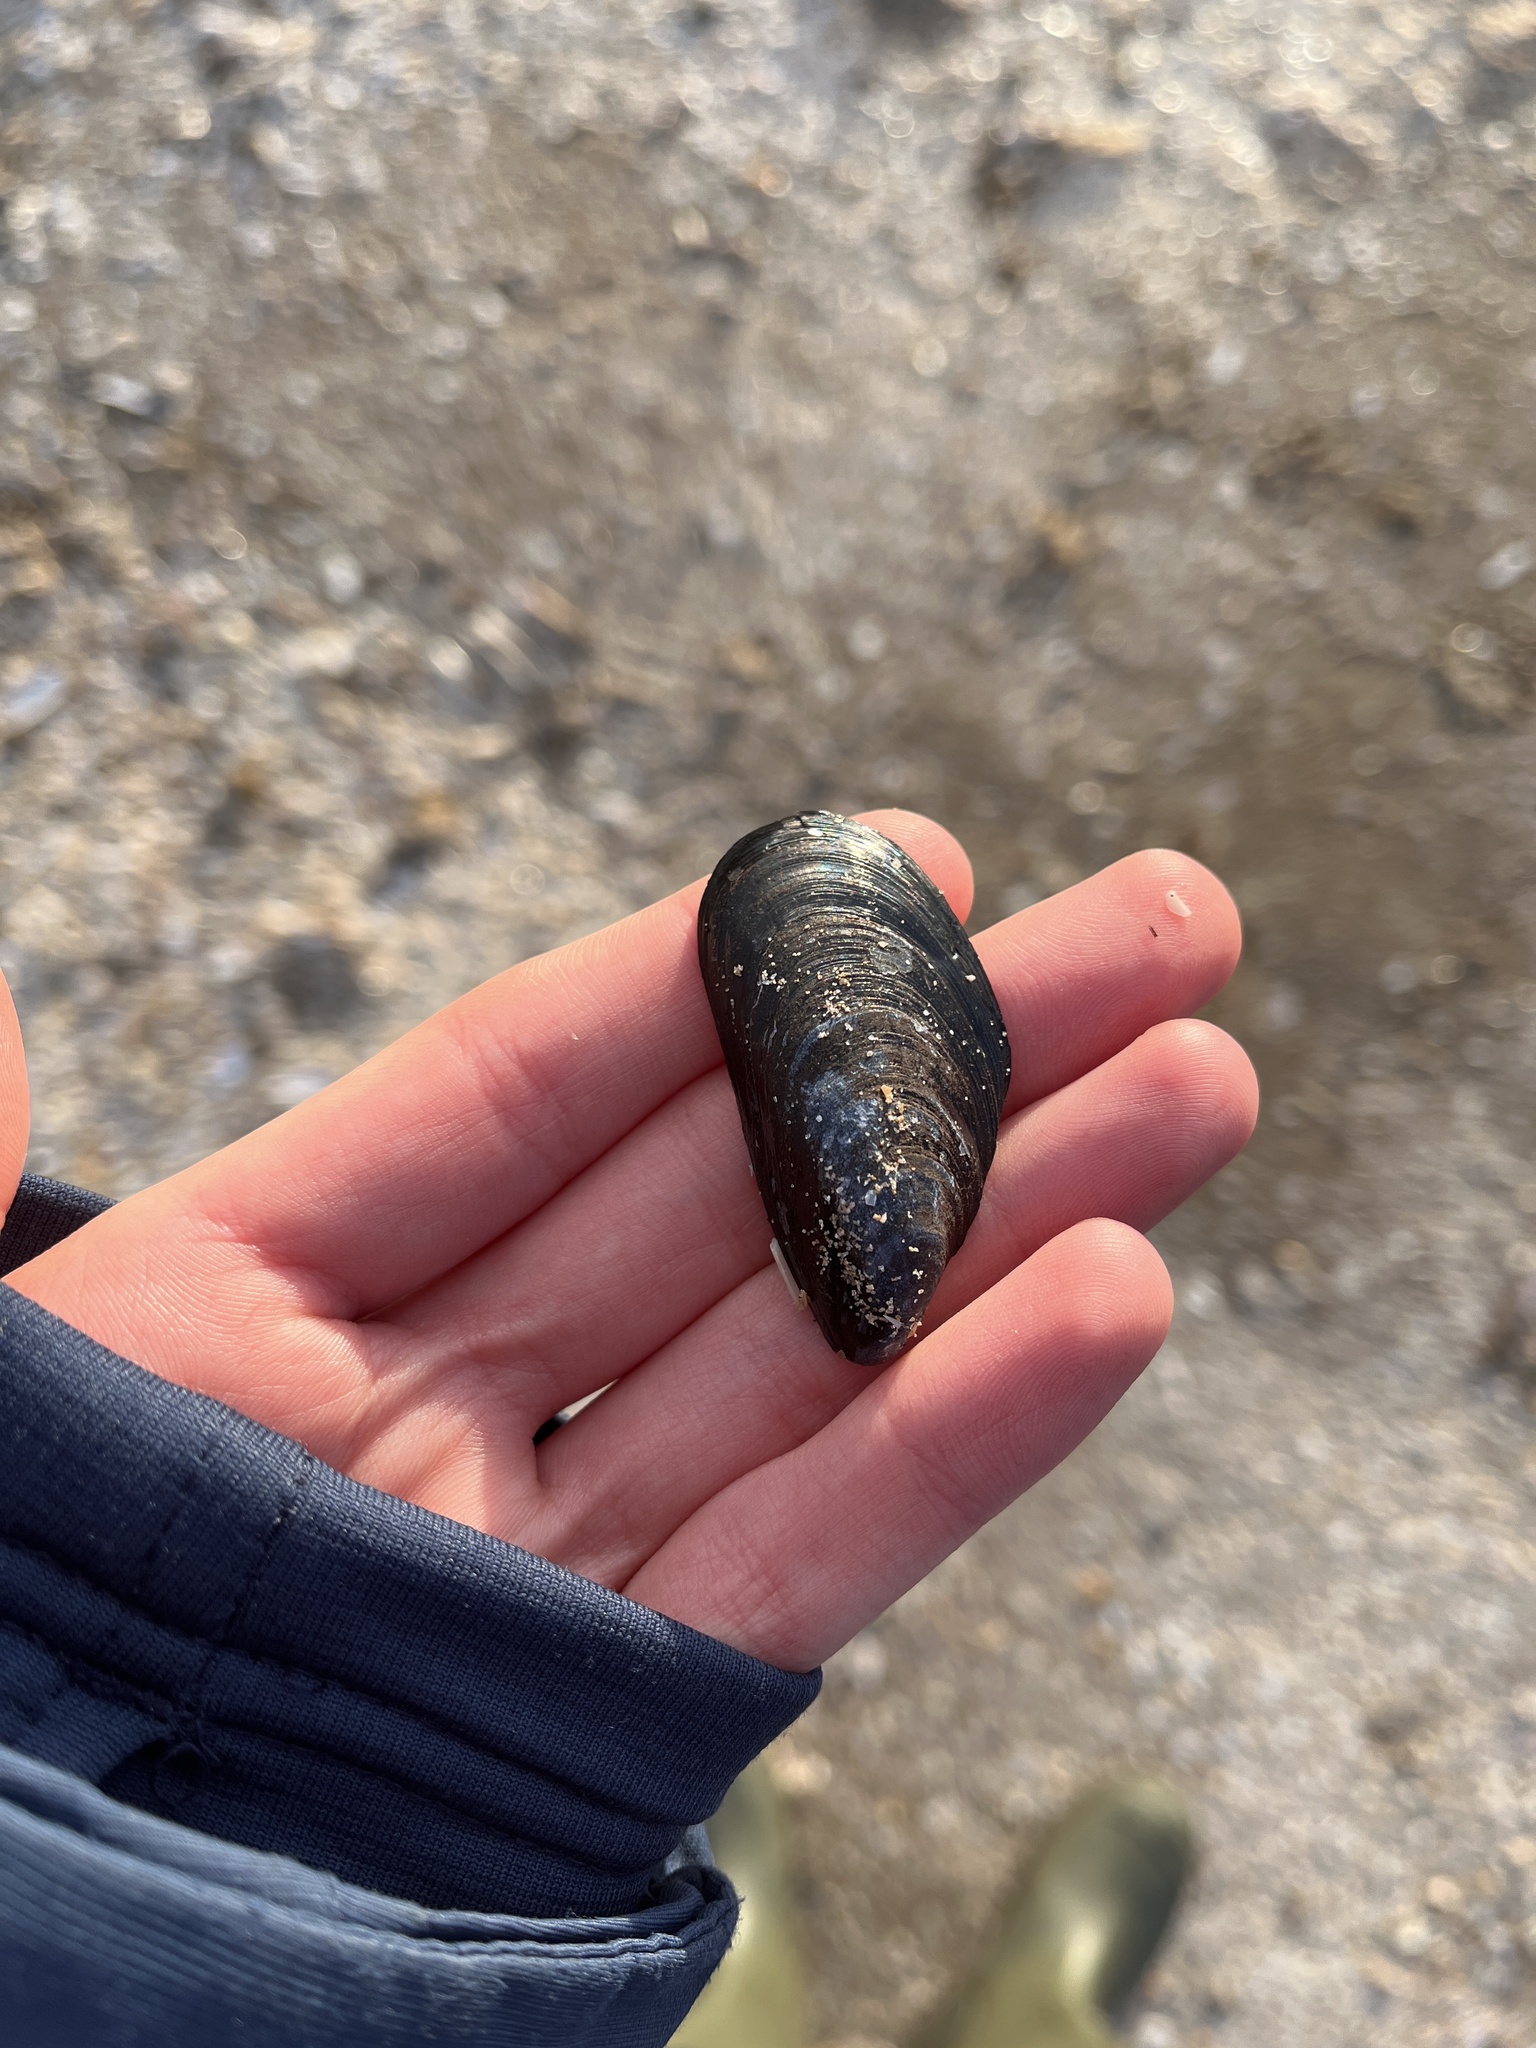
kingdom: Animalia
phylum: Mollusca
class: Bivalvia
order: Mytilida
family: Mytilidae
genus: Mytilus
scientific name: Mytilus edulis
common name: Blue mussel
